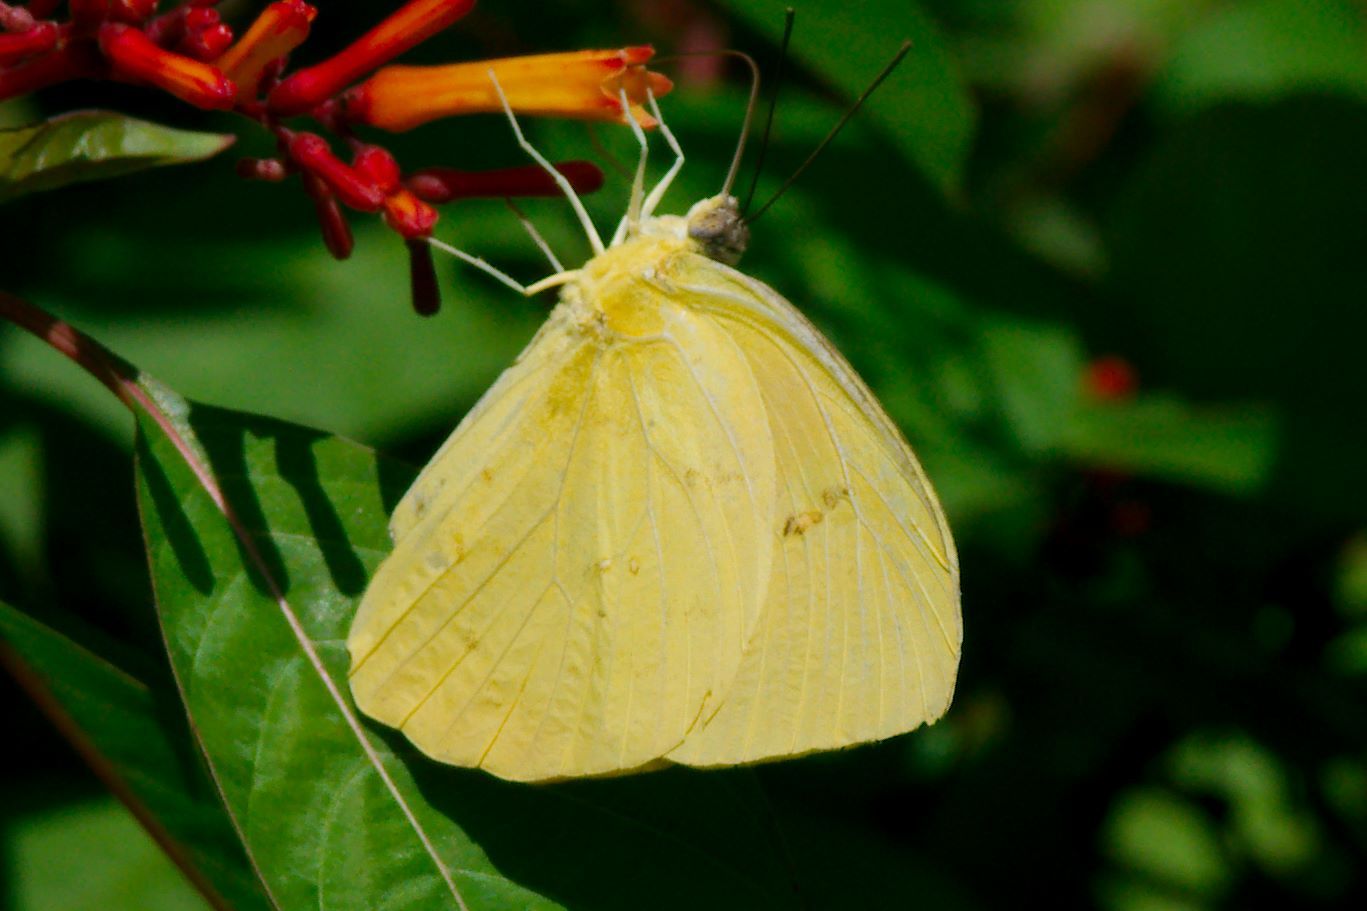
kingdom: Animalia
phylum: Arthropoda
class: Insecta
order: Lepidoptera
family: Pieridae
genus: Aphrissa
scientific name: Aphrissa statira
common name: Statira sulphur
